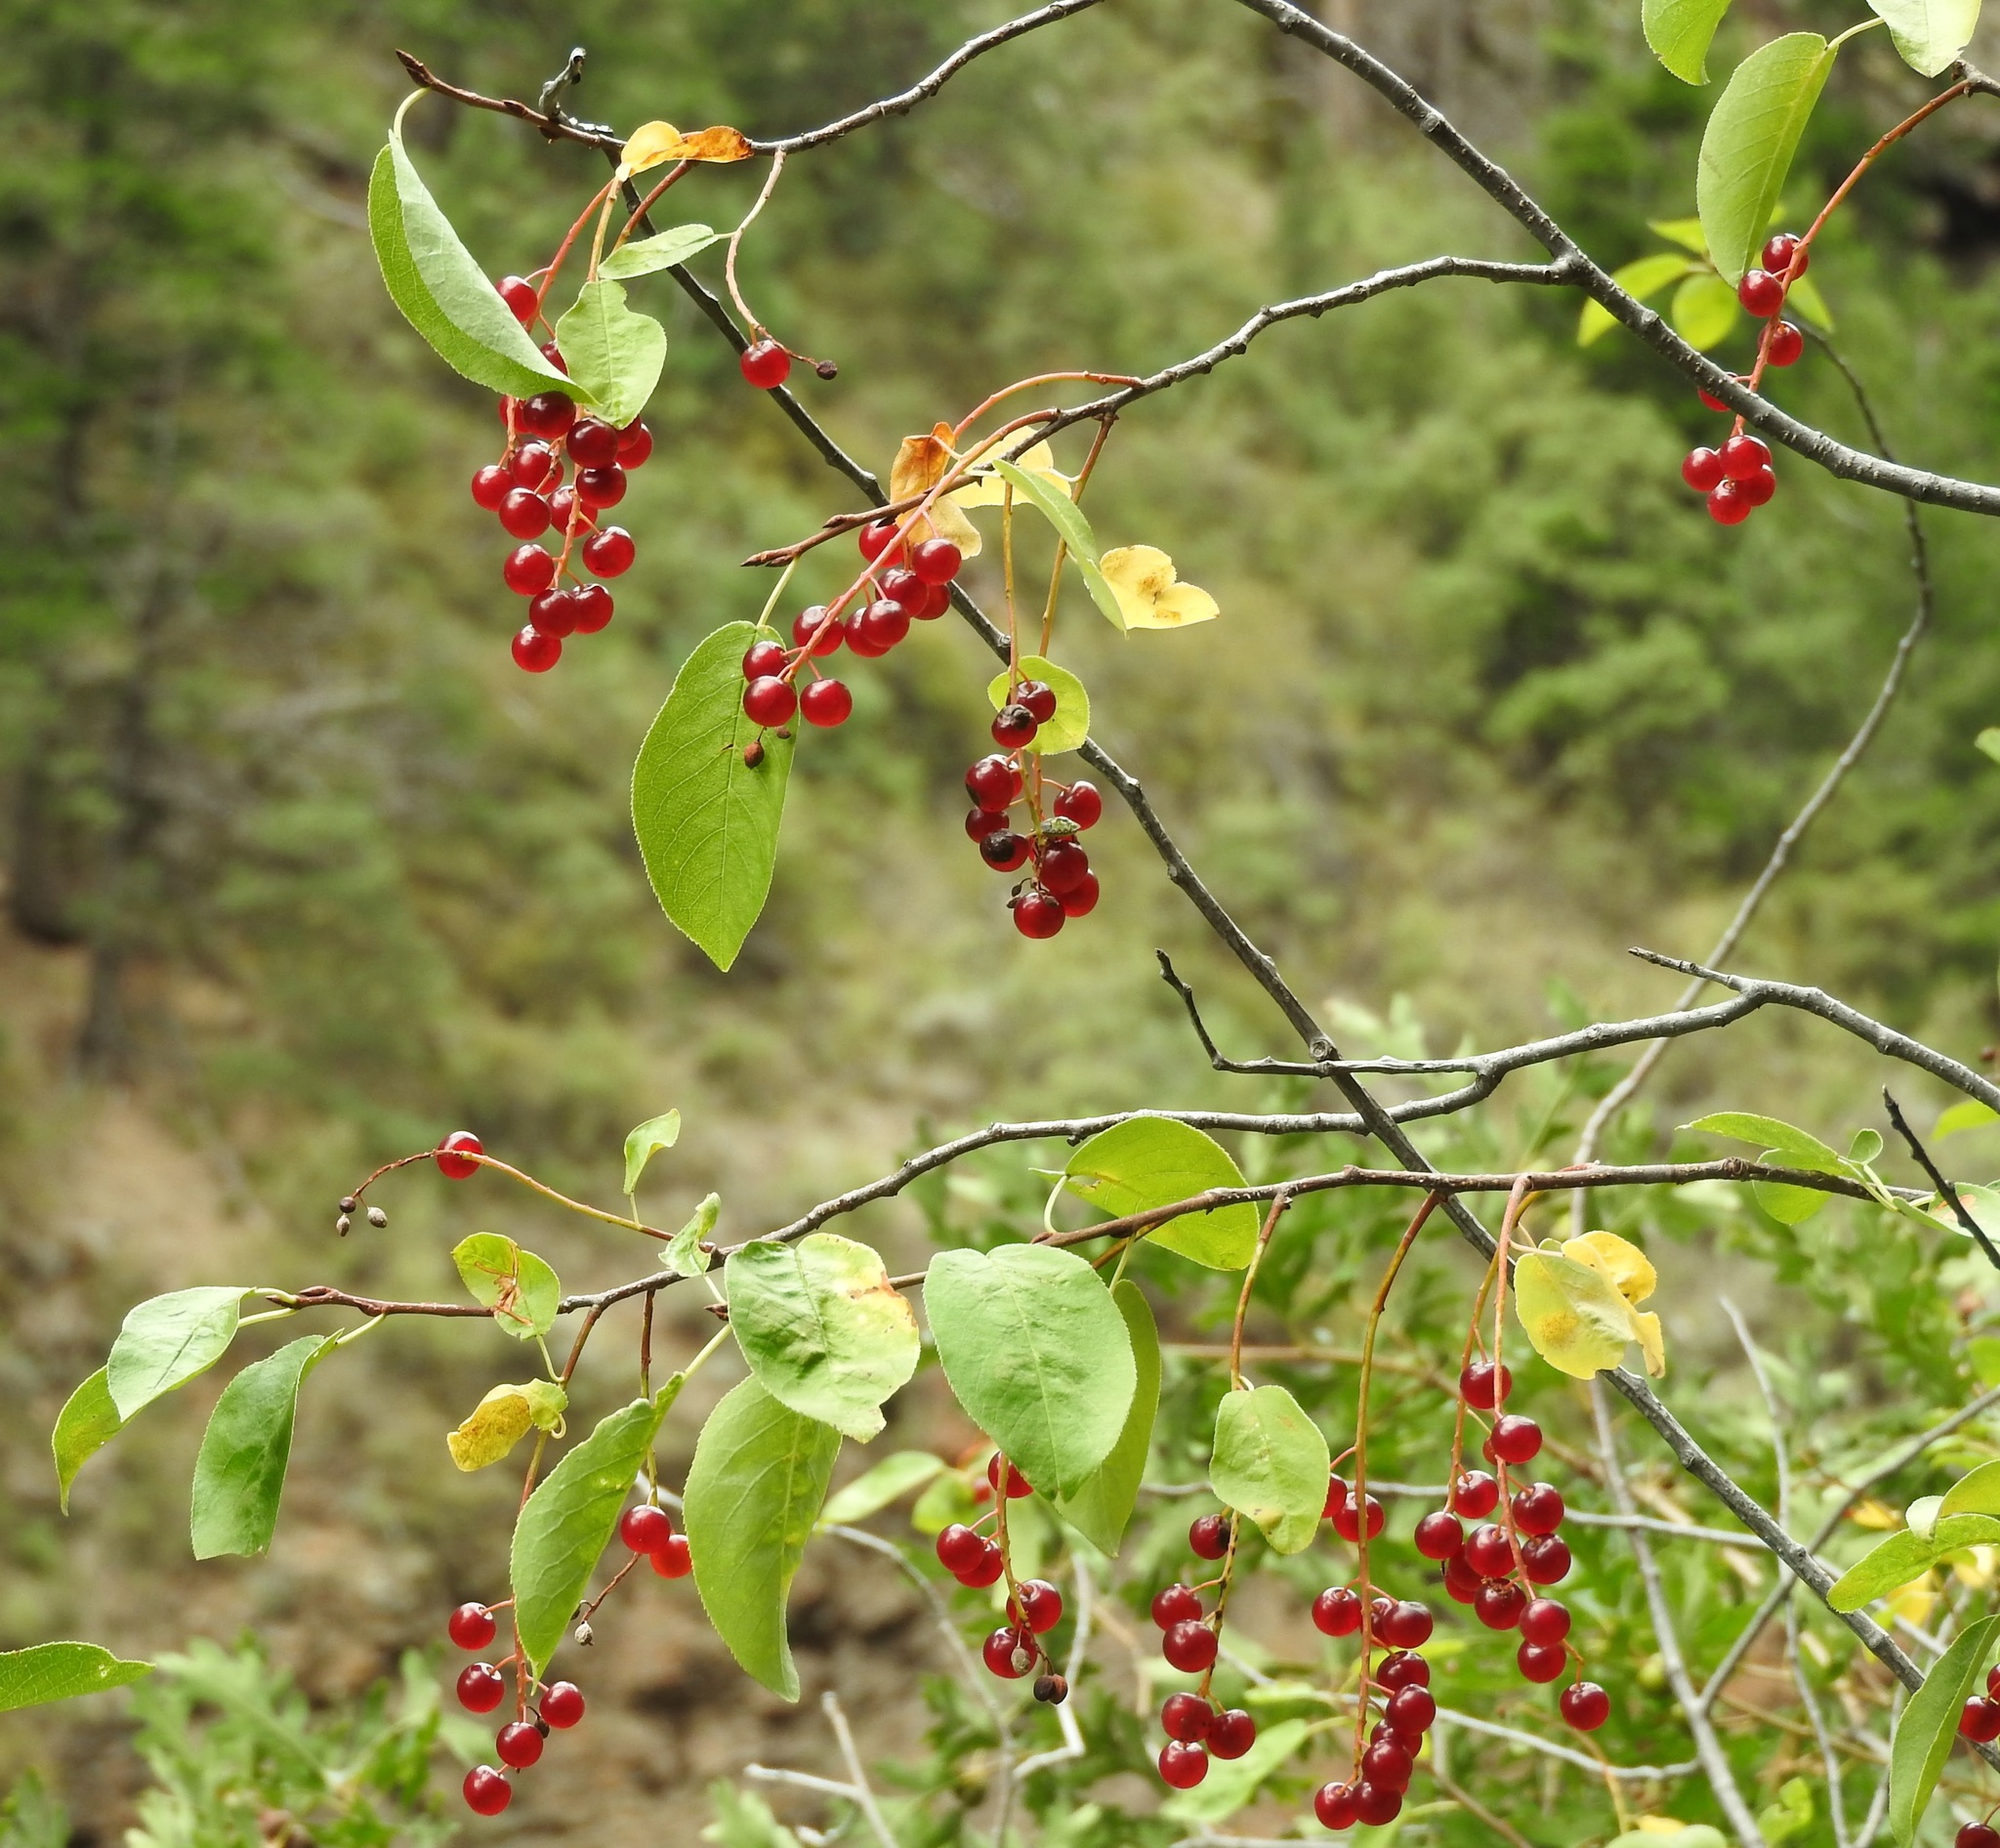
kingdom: Plantae
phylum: Tracheophyta
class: Magnoliopsida
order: Rosales
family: Rosaceae
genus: Prunus
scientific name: Prunus virginiana
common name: Chokecherry
